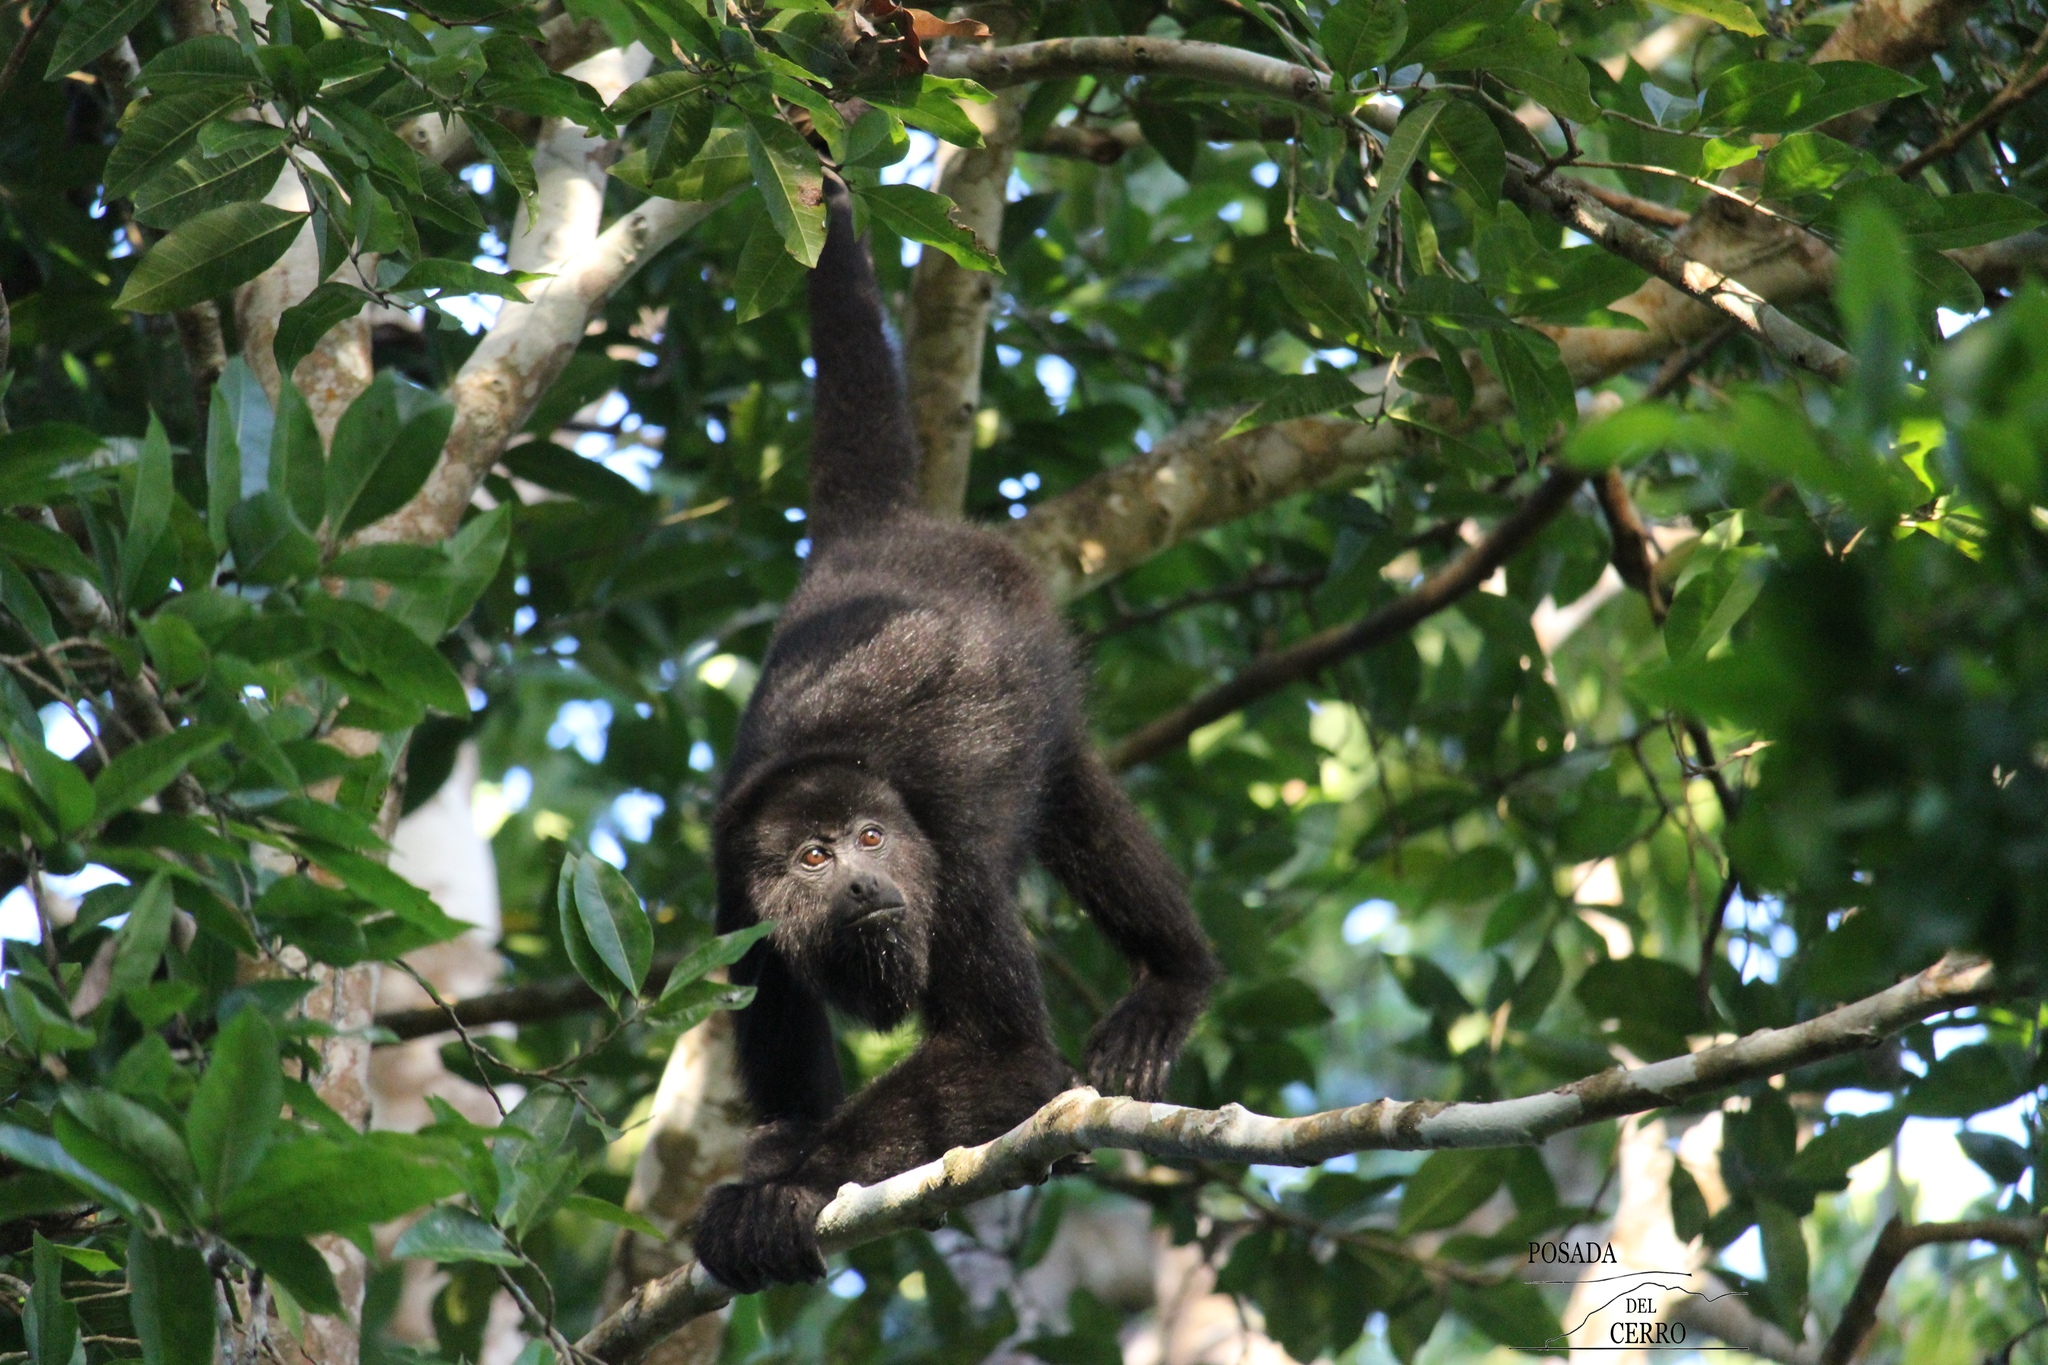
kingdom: Animalia
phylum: Chordata
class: Mammalia
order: Primates
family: Atelidae
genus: Alouatta
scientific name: Alouatta pigra
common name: Guatemalan black howler
